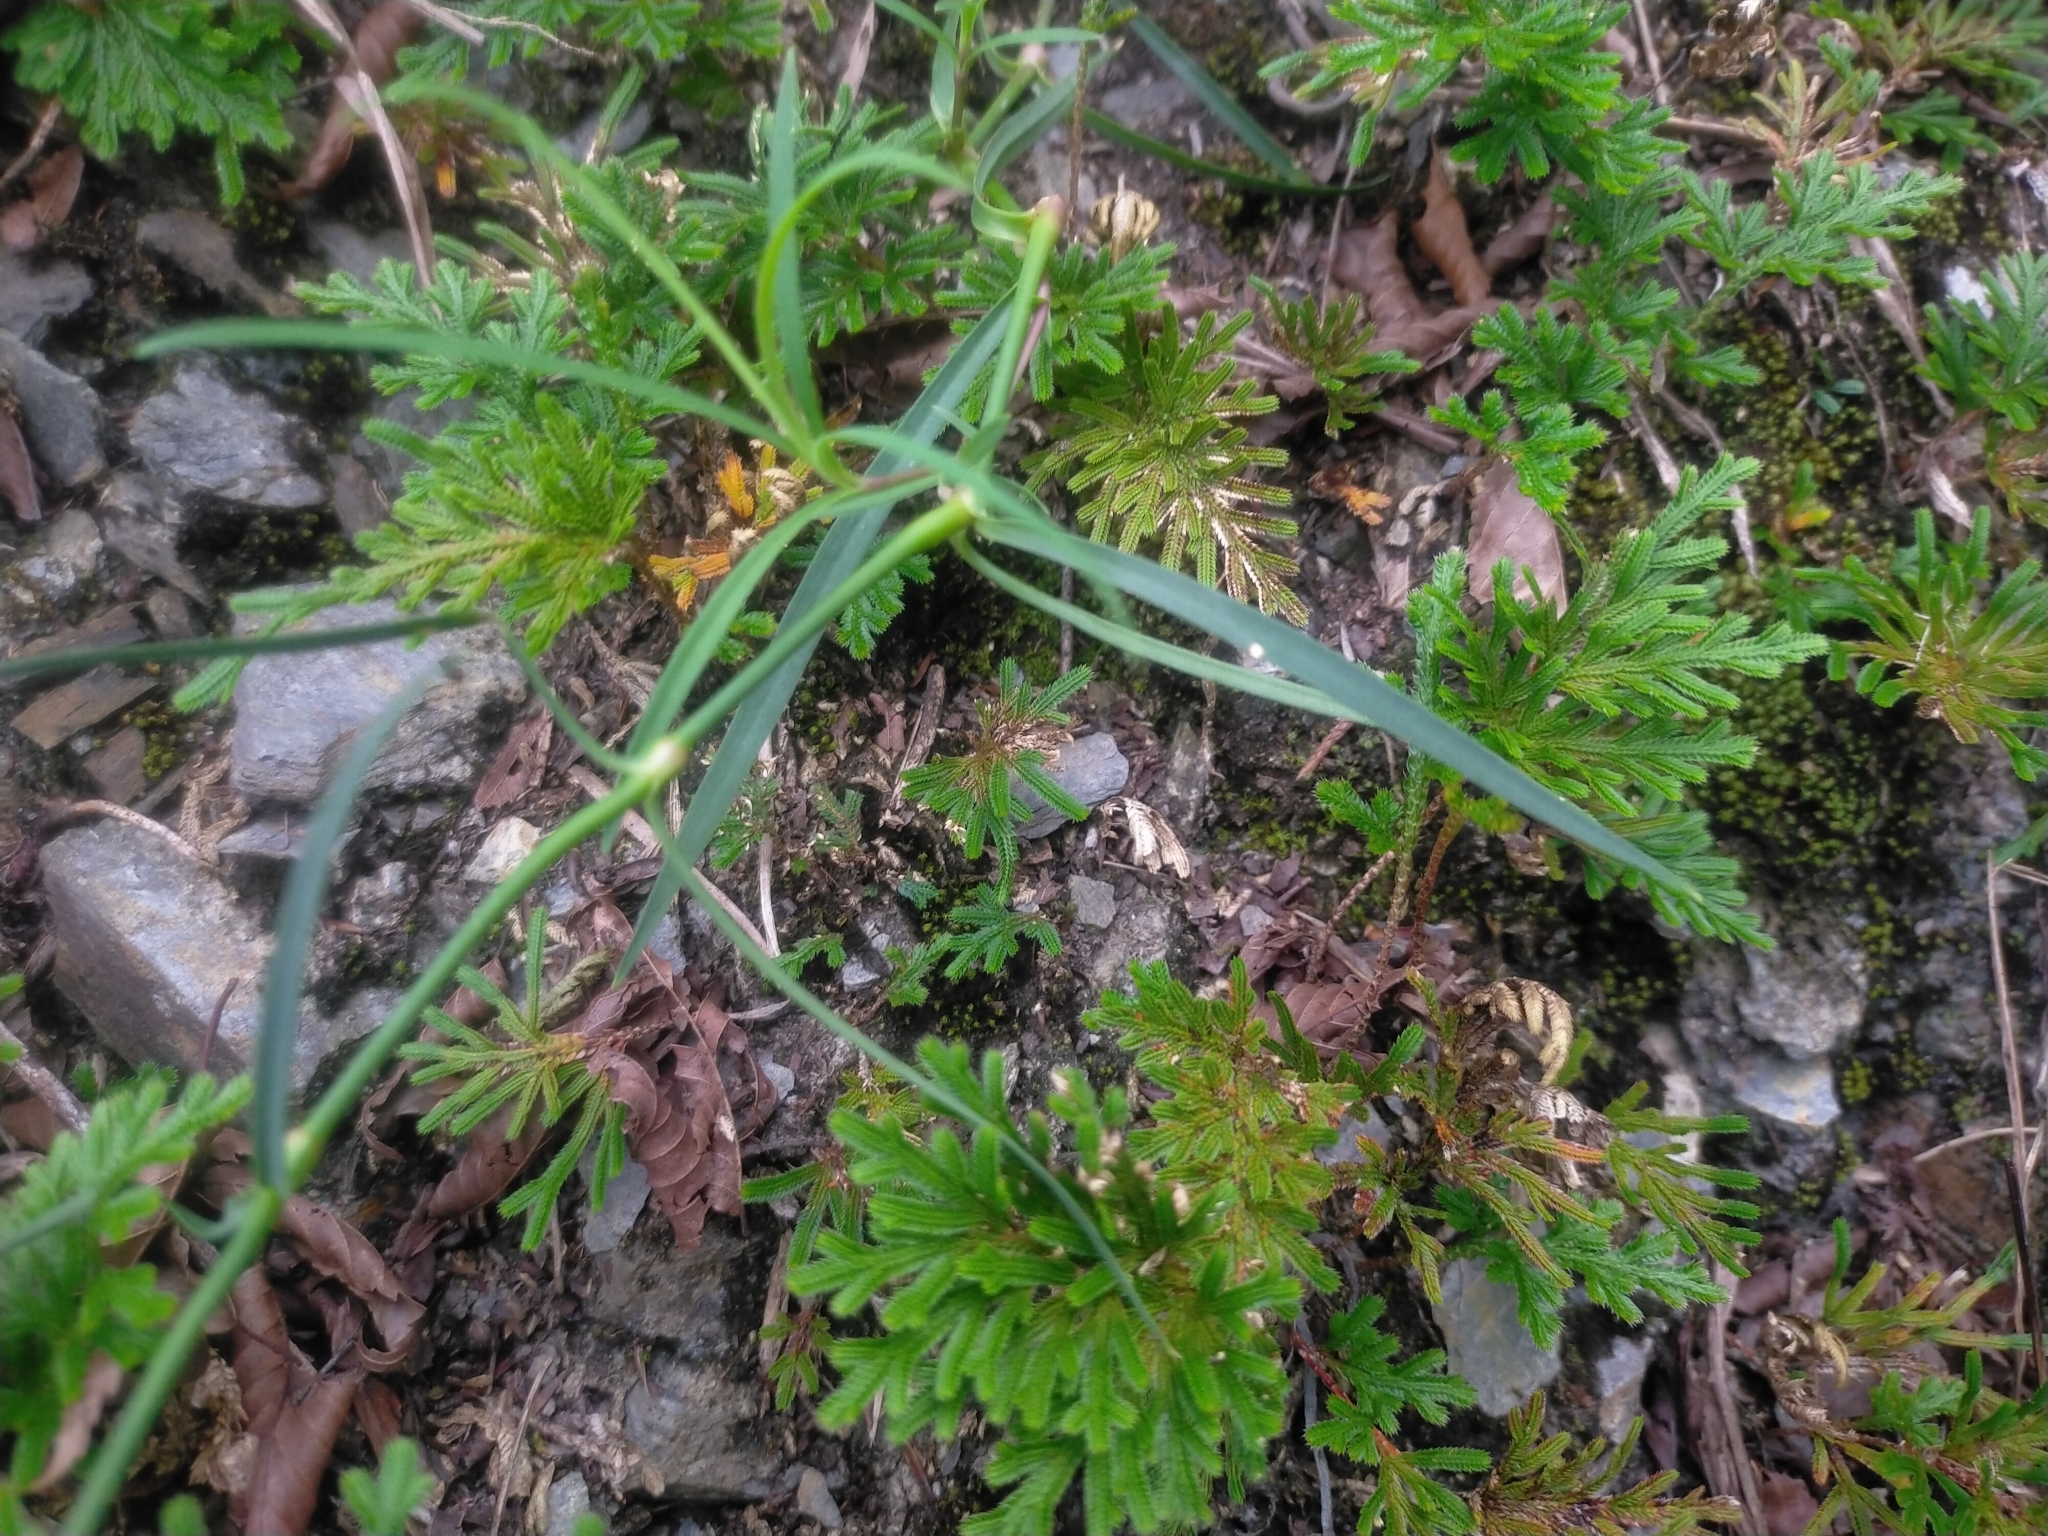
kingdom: Plantae
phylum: Tracheophyta
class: Magnoliopsida
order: Caryophyllales
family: Caryophyllaceae
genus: Dianthus
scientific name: Dianthus longicalyx
